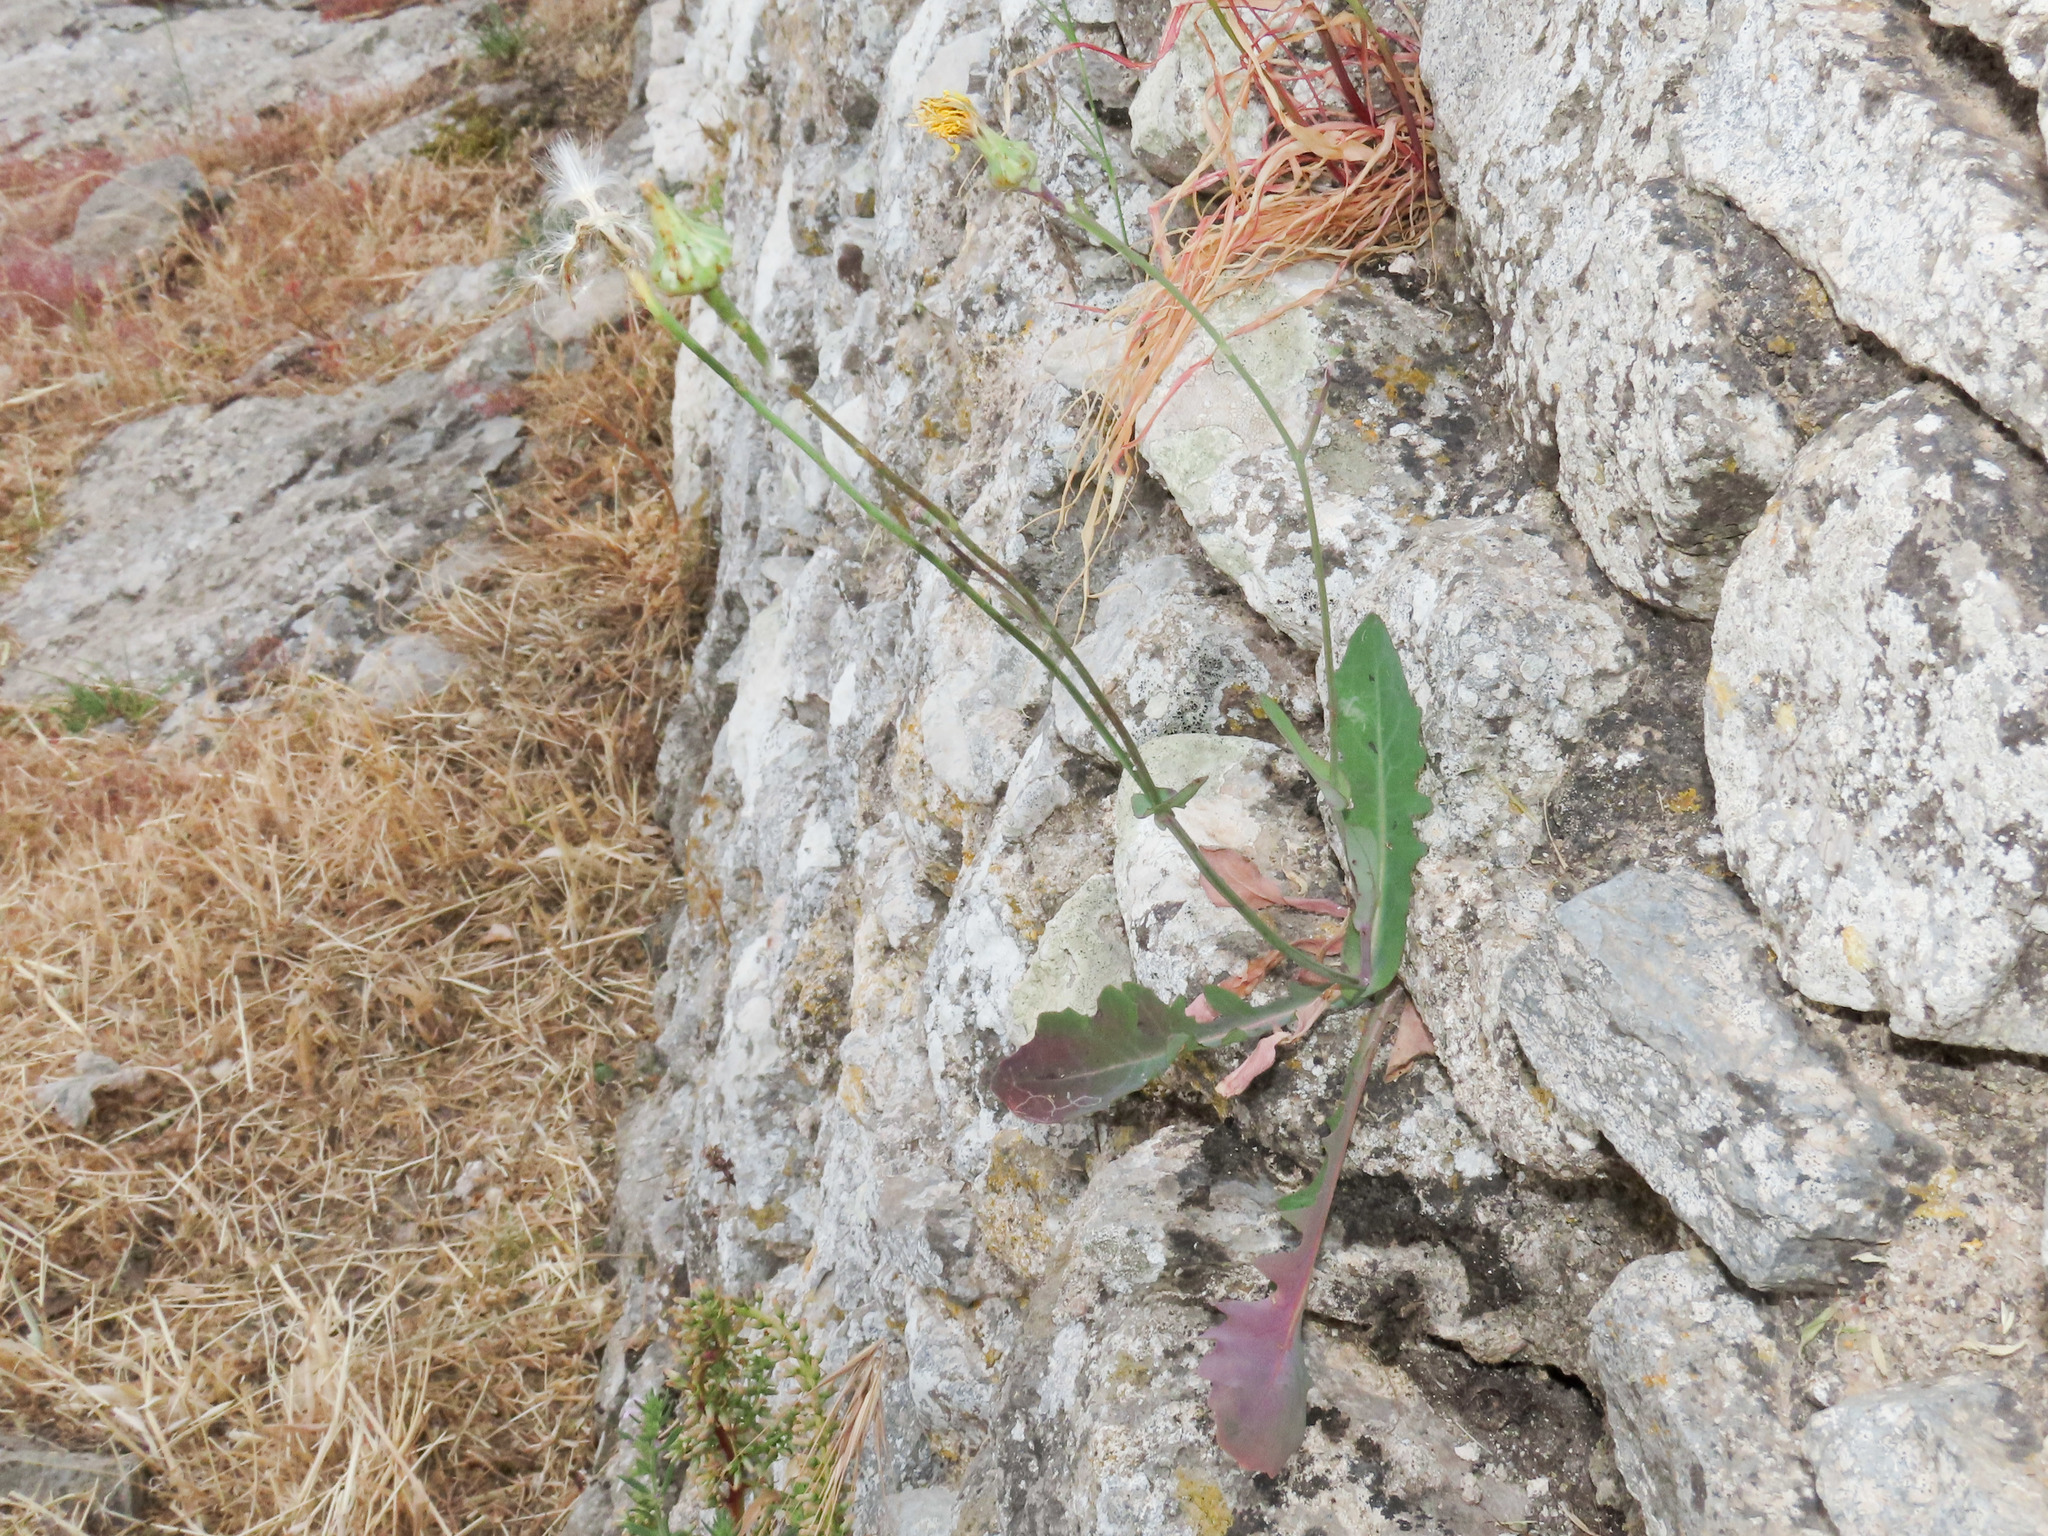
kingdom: Plantae
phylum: Tracheophyta
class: Magnoliopsida
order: Asterales
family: Asteraceae
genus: Reichardia
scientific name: Reichardia picroides
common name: Common brighteyes
